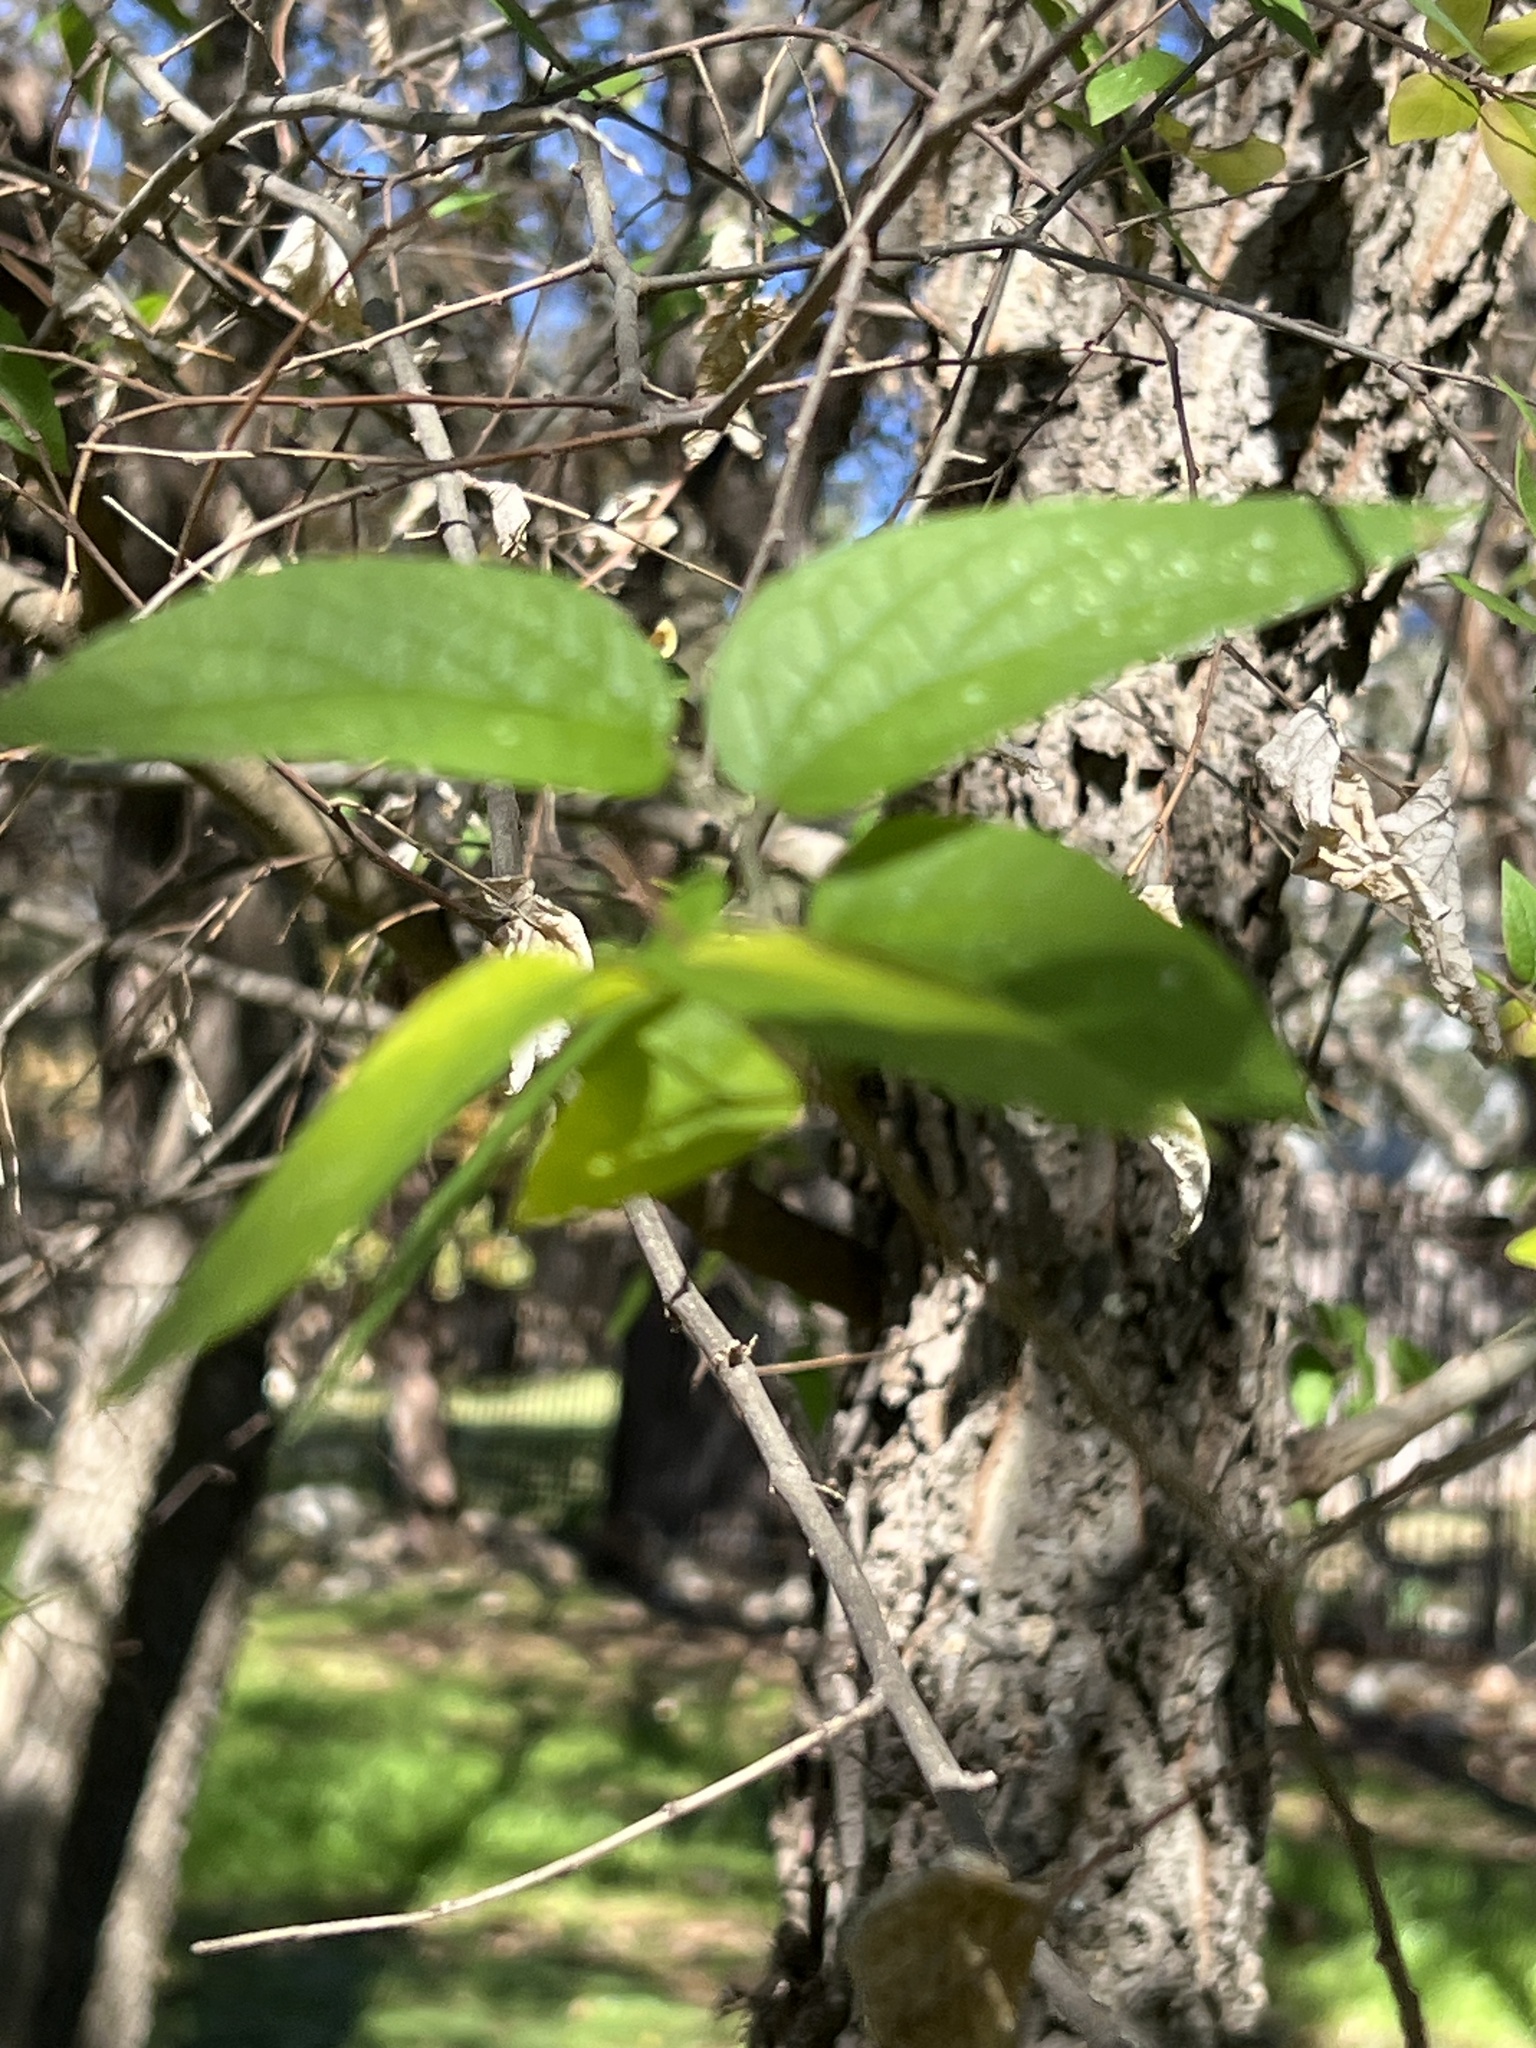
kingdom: Plantae
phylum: Tracheophyta
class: Magnoliopsida
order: Rosales
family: Cannabaceae
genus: Celtis
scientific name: Celtis laevigata
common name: Sugarberry
